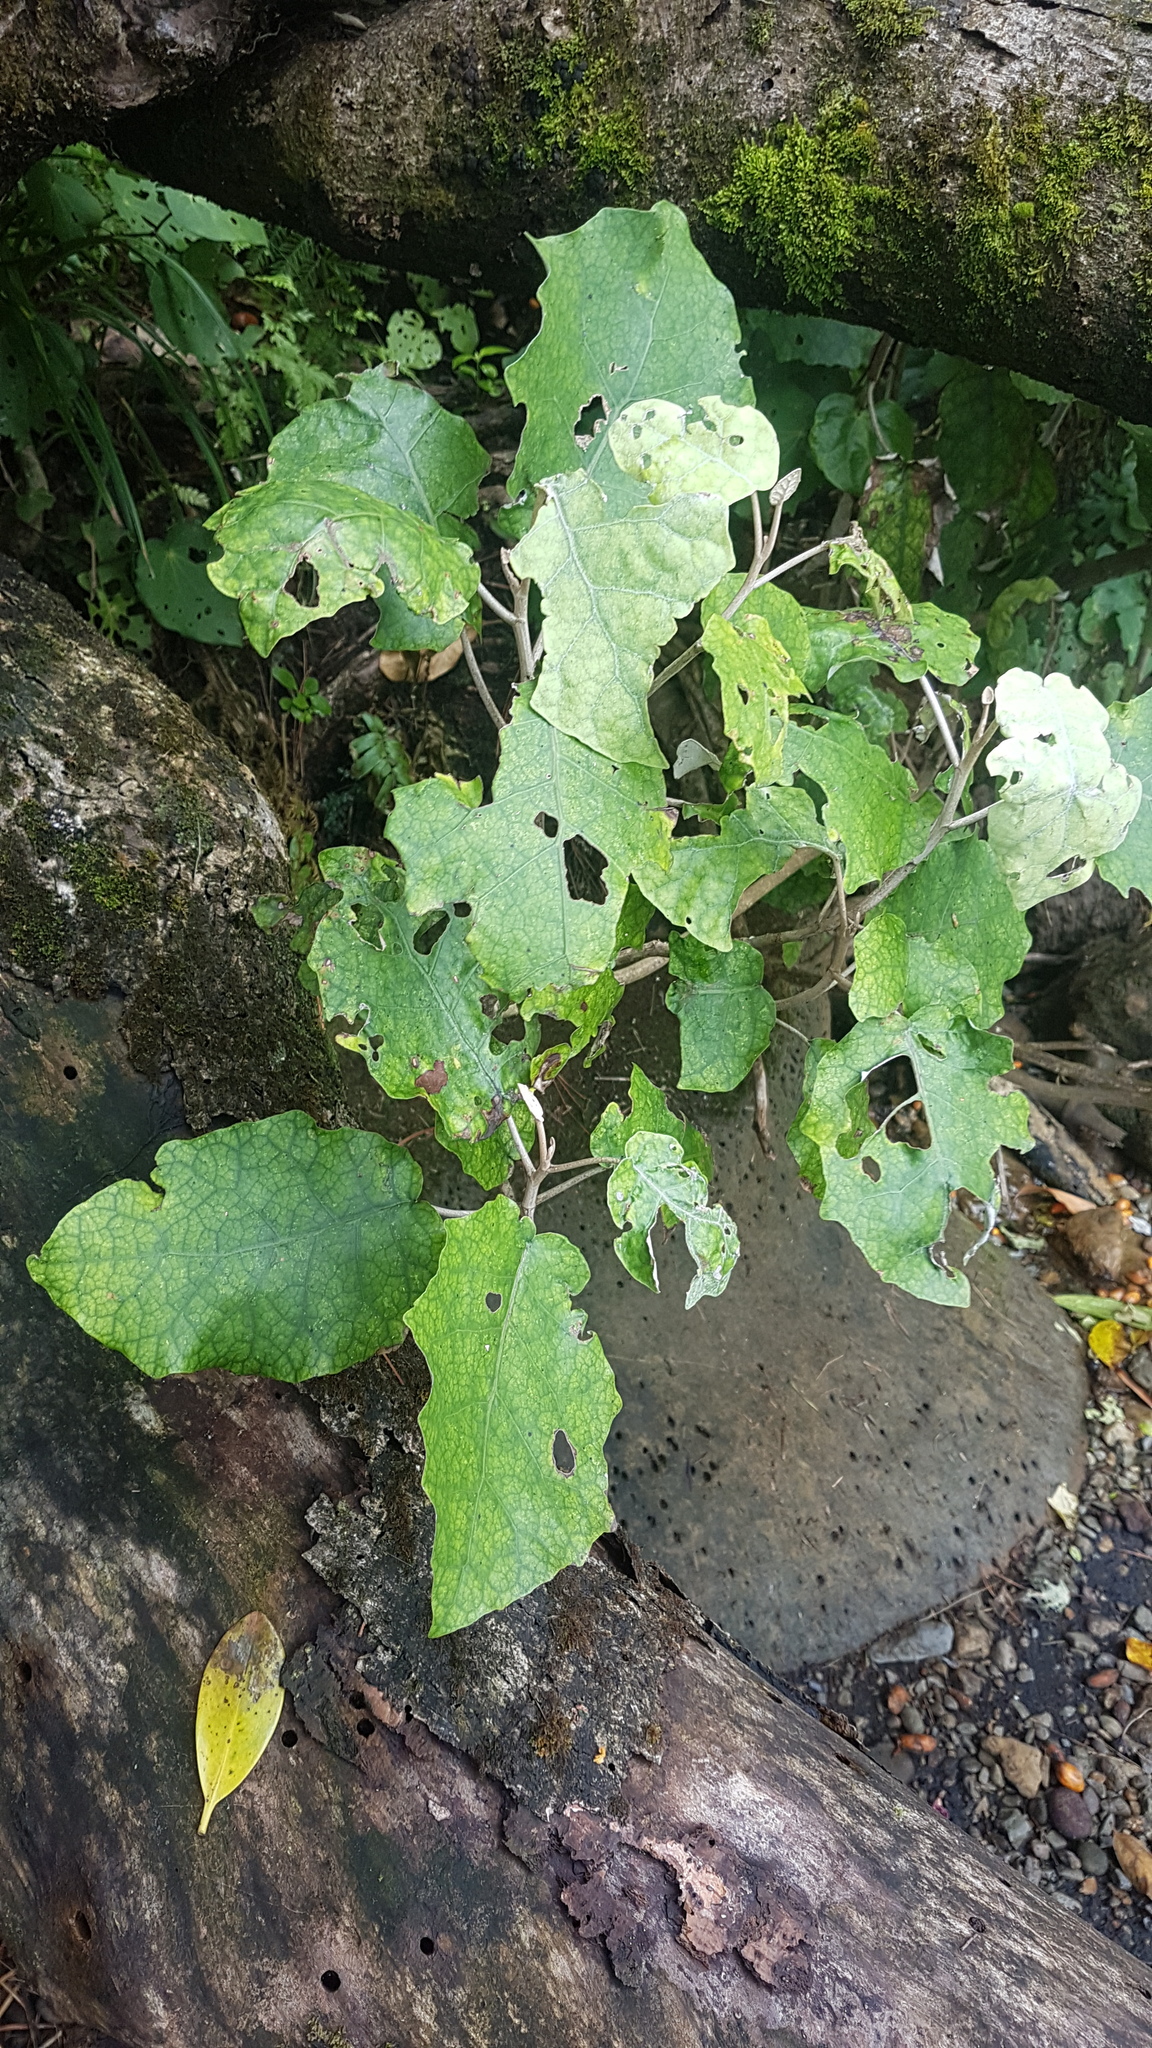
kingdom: Plantae
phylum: Tracheophyta
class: Magnoliopsida
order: Asterales
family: Asteraceae
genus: Brachyglottis
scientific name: Brachyglottis repanda
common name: Hedge ragwort
